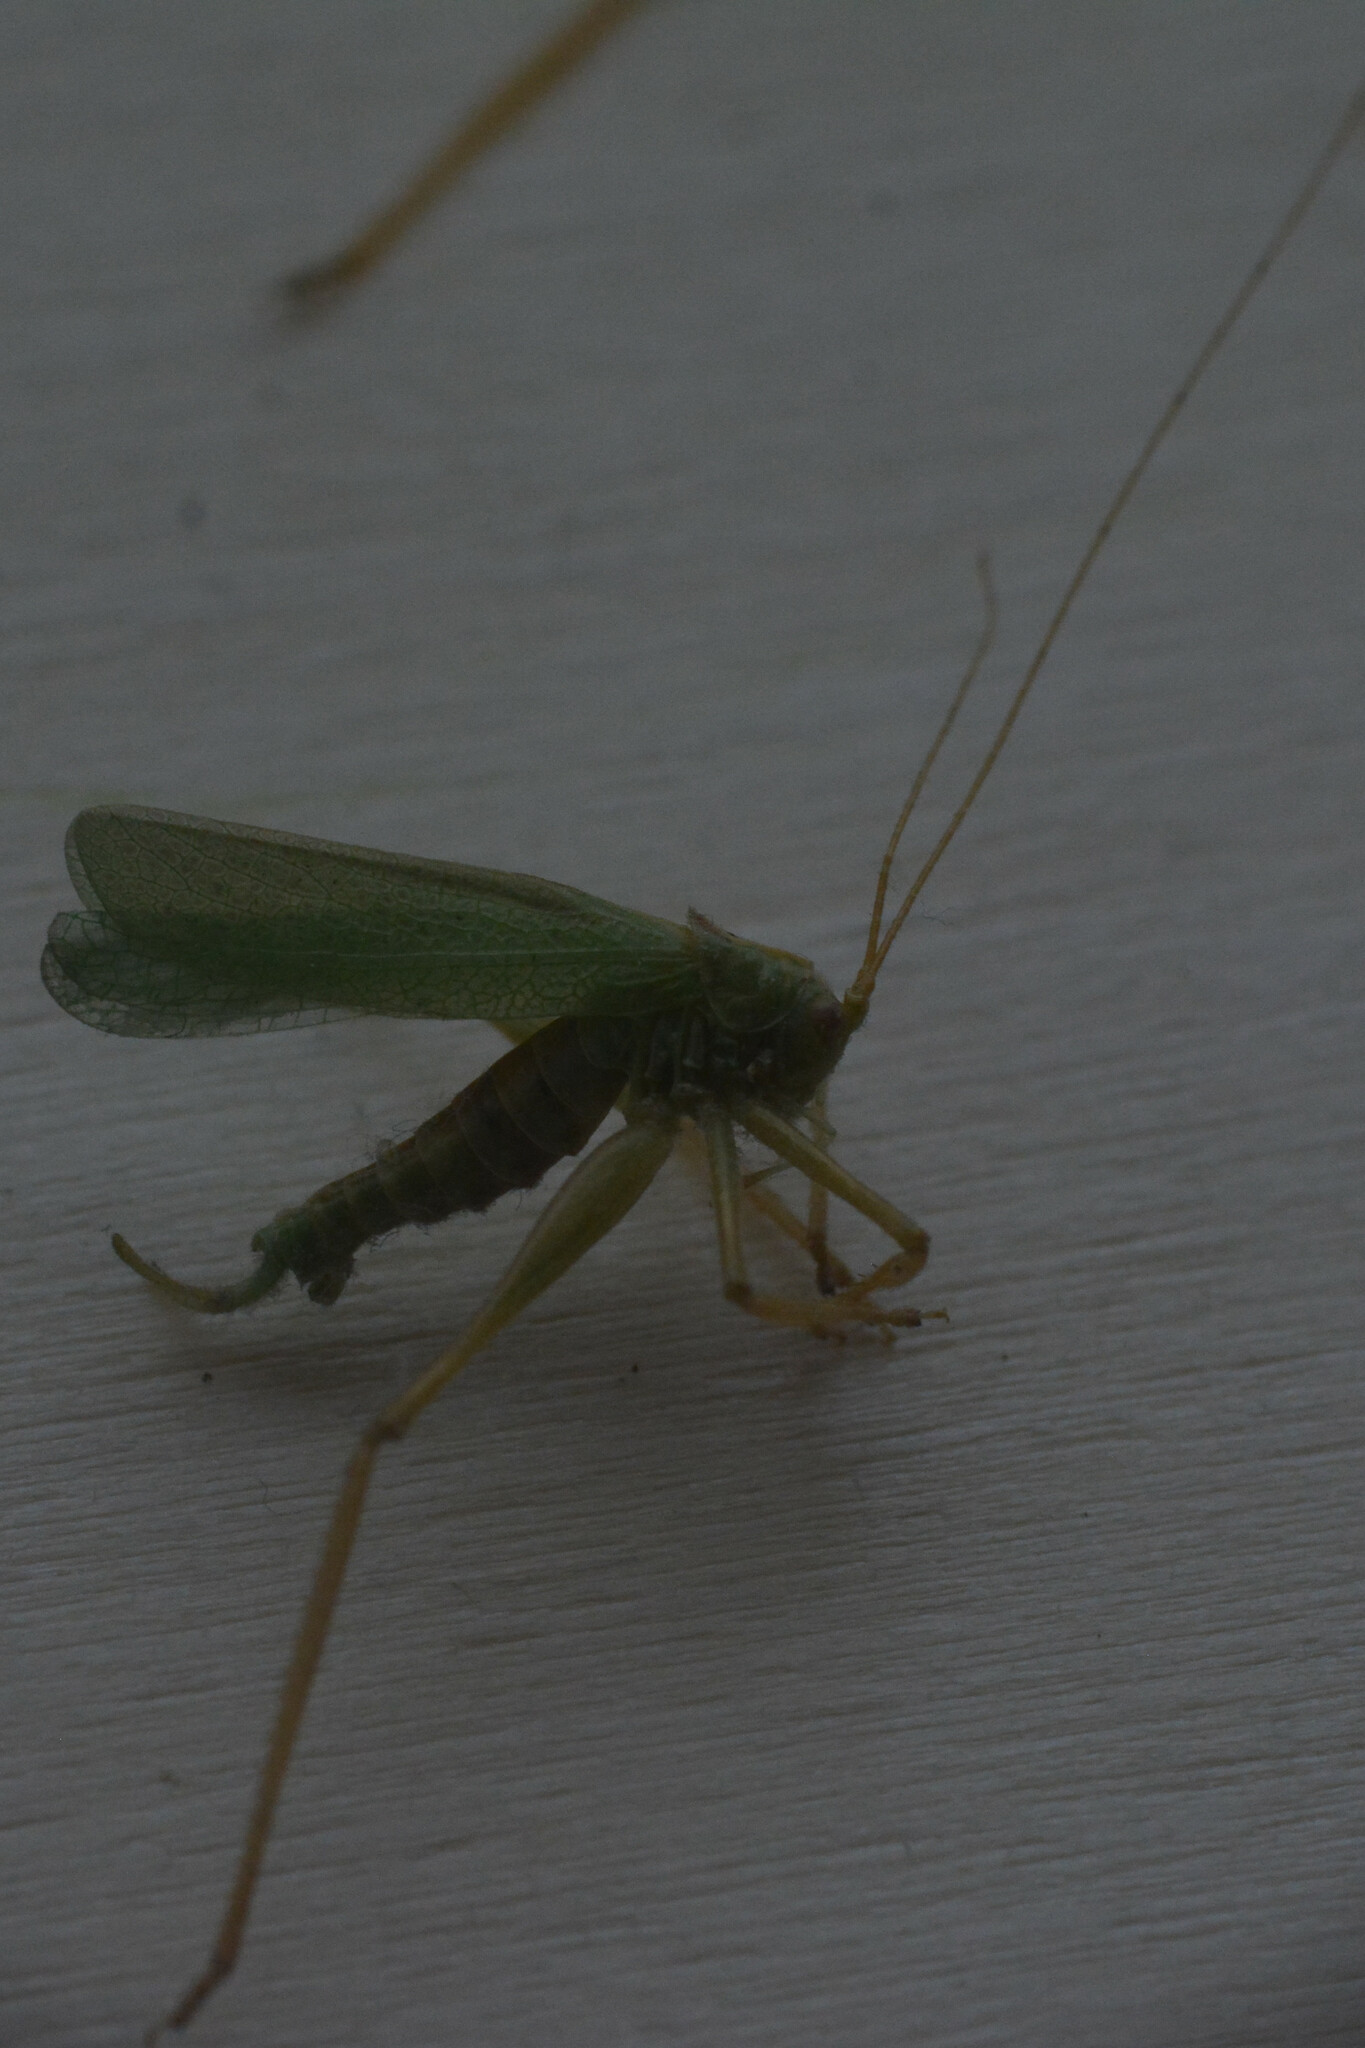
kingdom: Animalia
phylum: Arthropoda
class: Insecta
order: Orthoptera
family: Tettigoniidae
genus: Meconema
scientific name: Meconema thalassinum
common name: Oak bush-cricket
